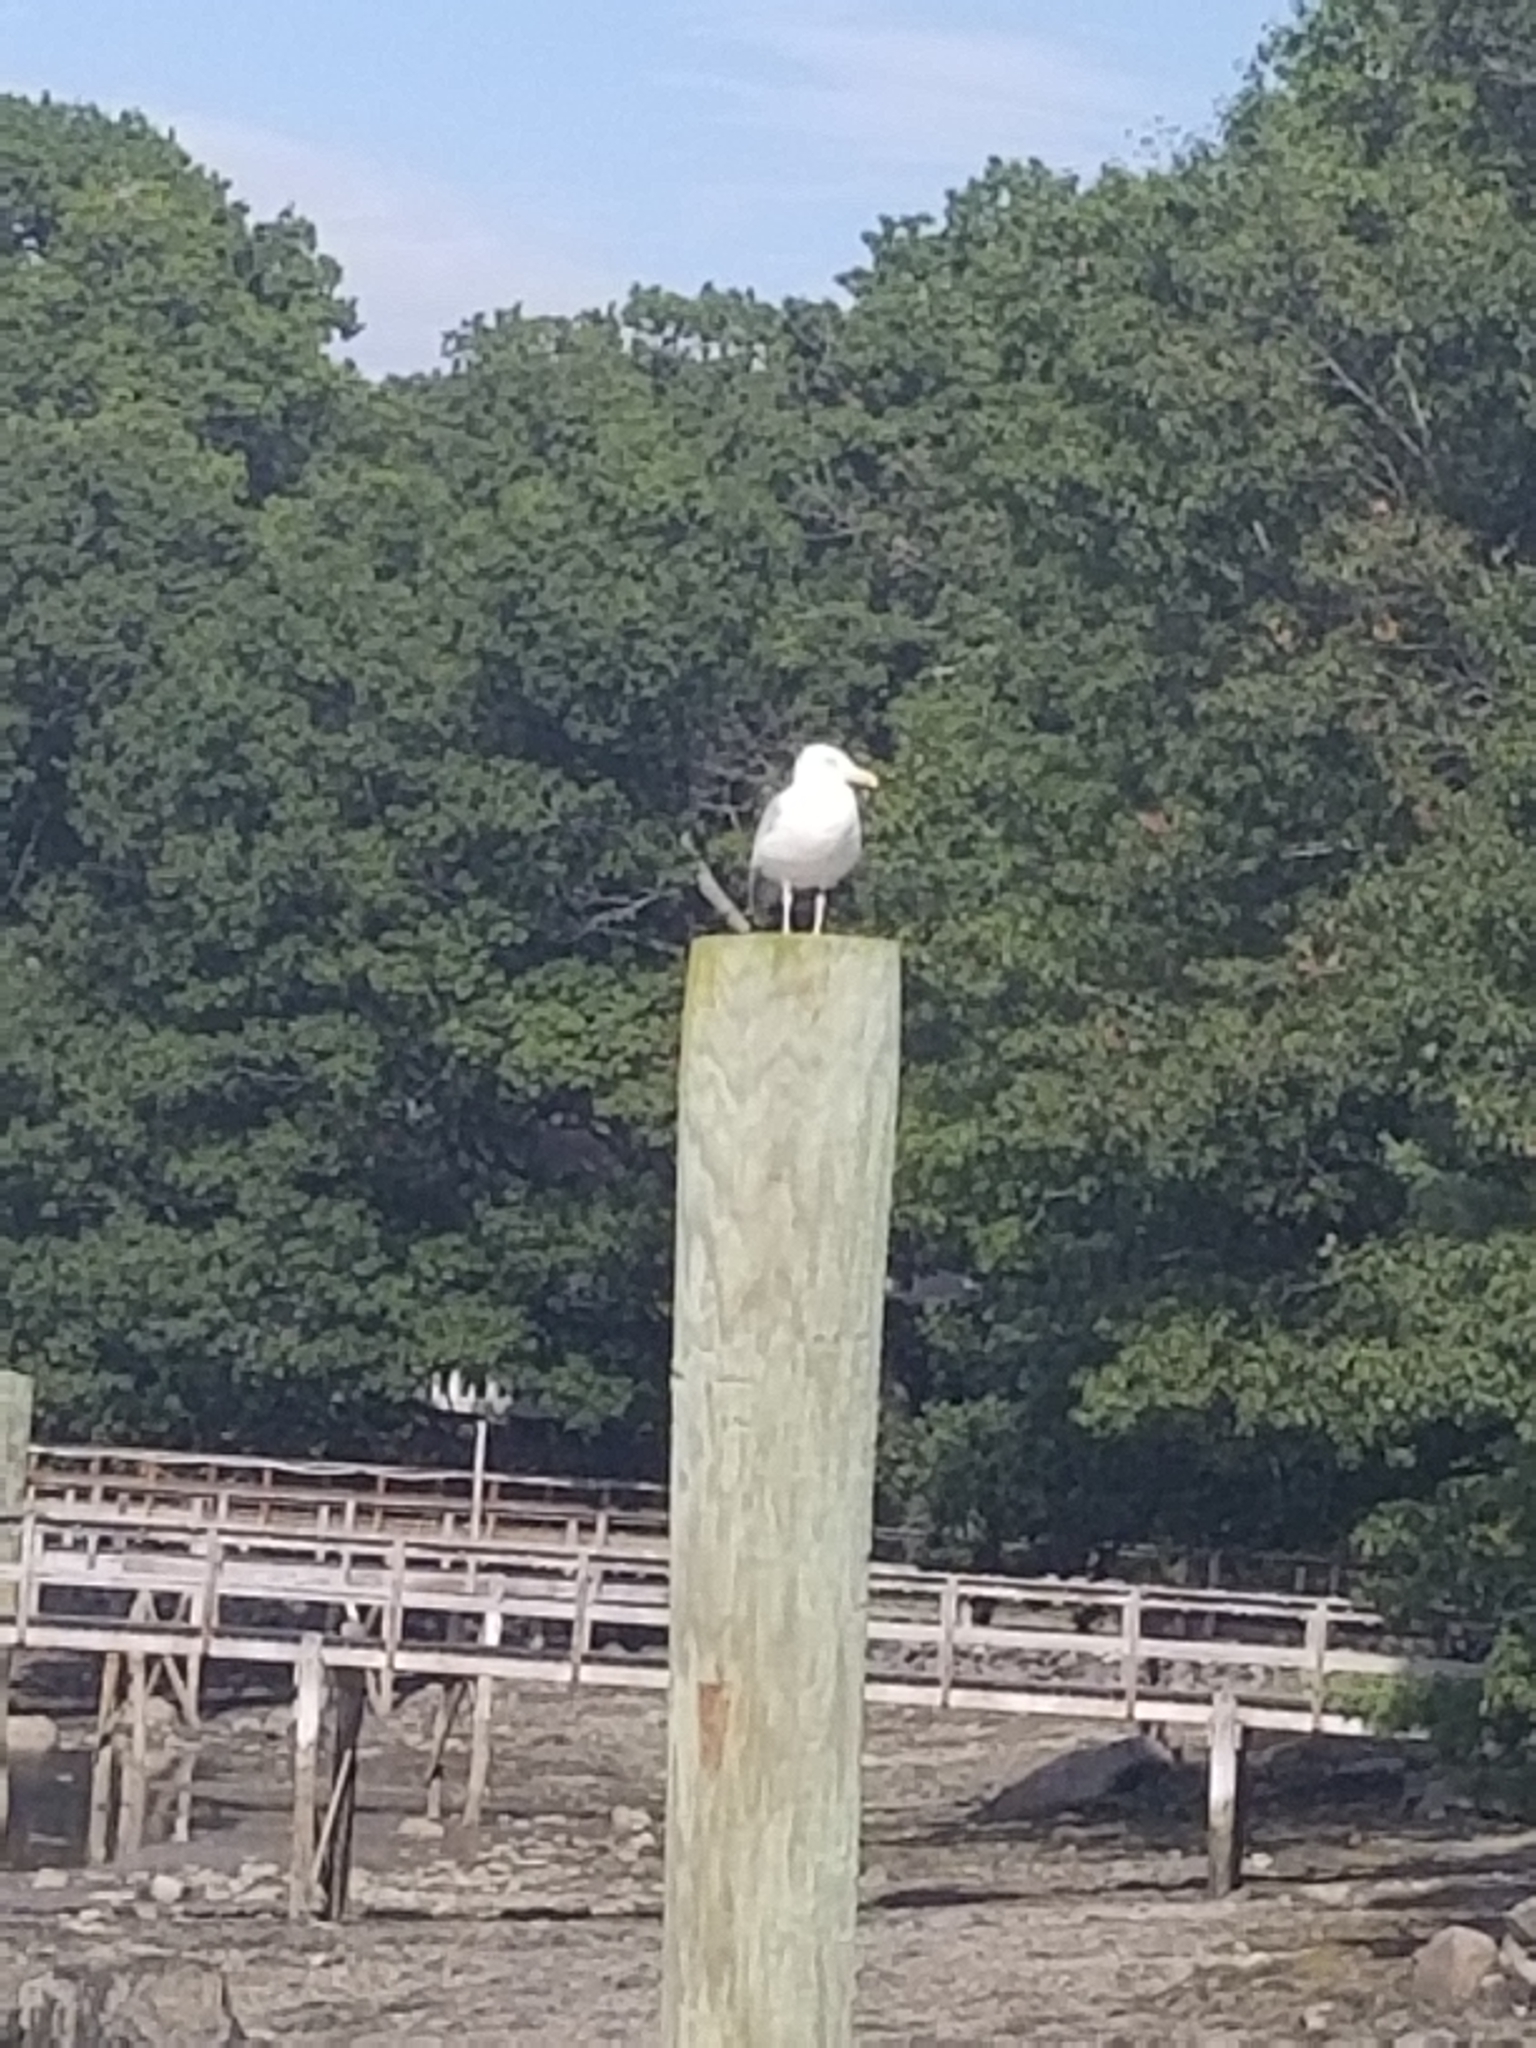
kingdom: Animalia
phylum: Chordata
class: Aves
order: Charadriiformes
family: Laridae
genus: Larus
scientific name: Larus argentatus
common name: Herring gull
